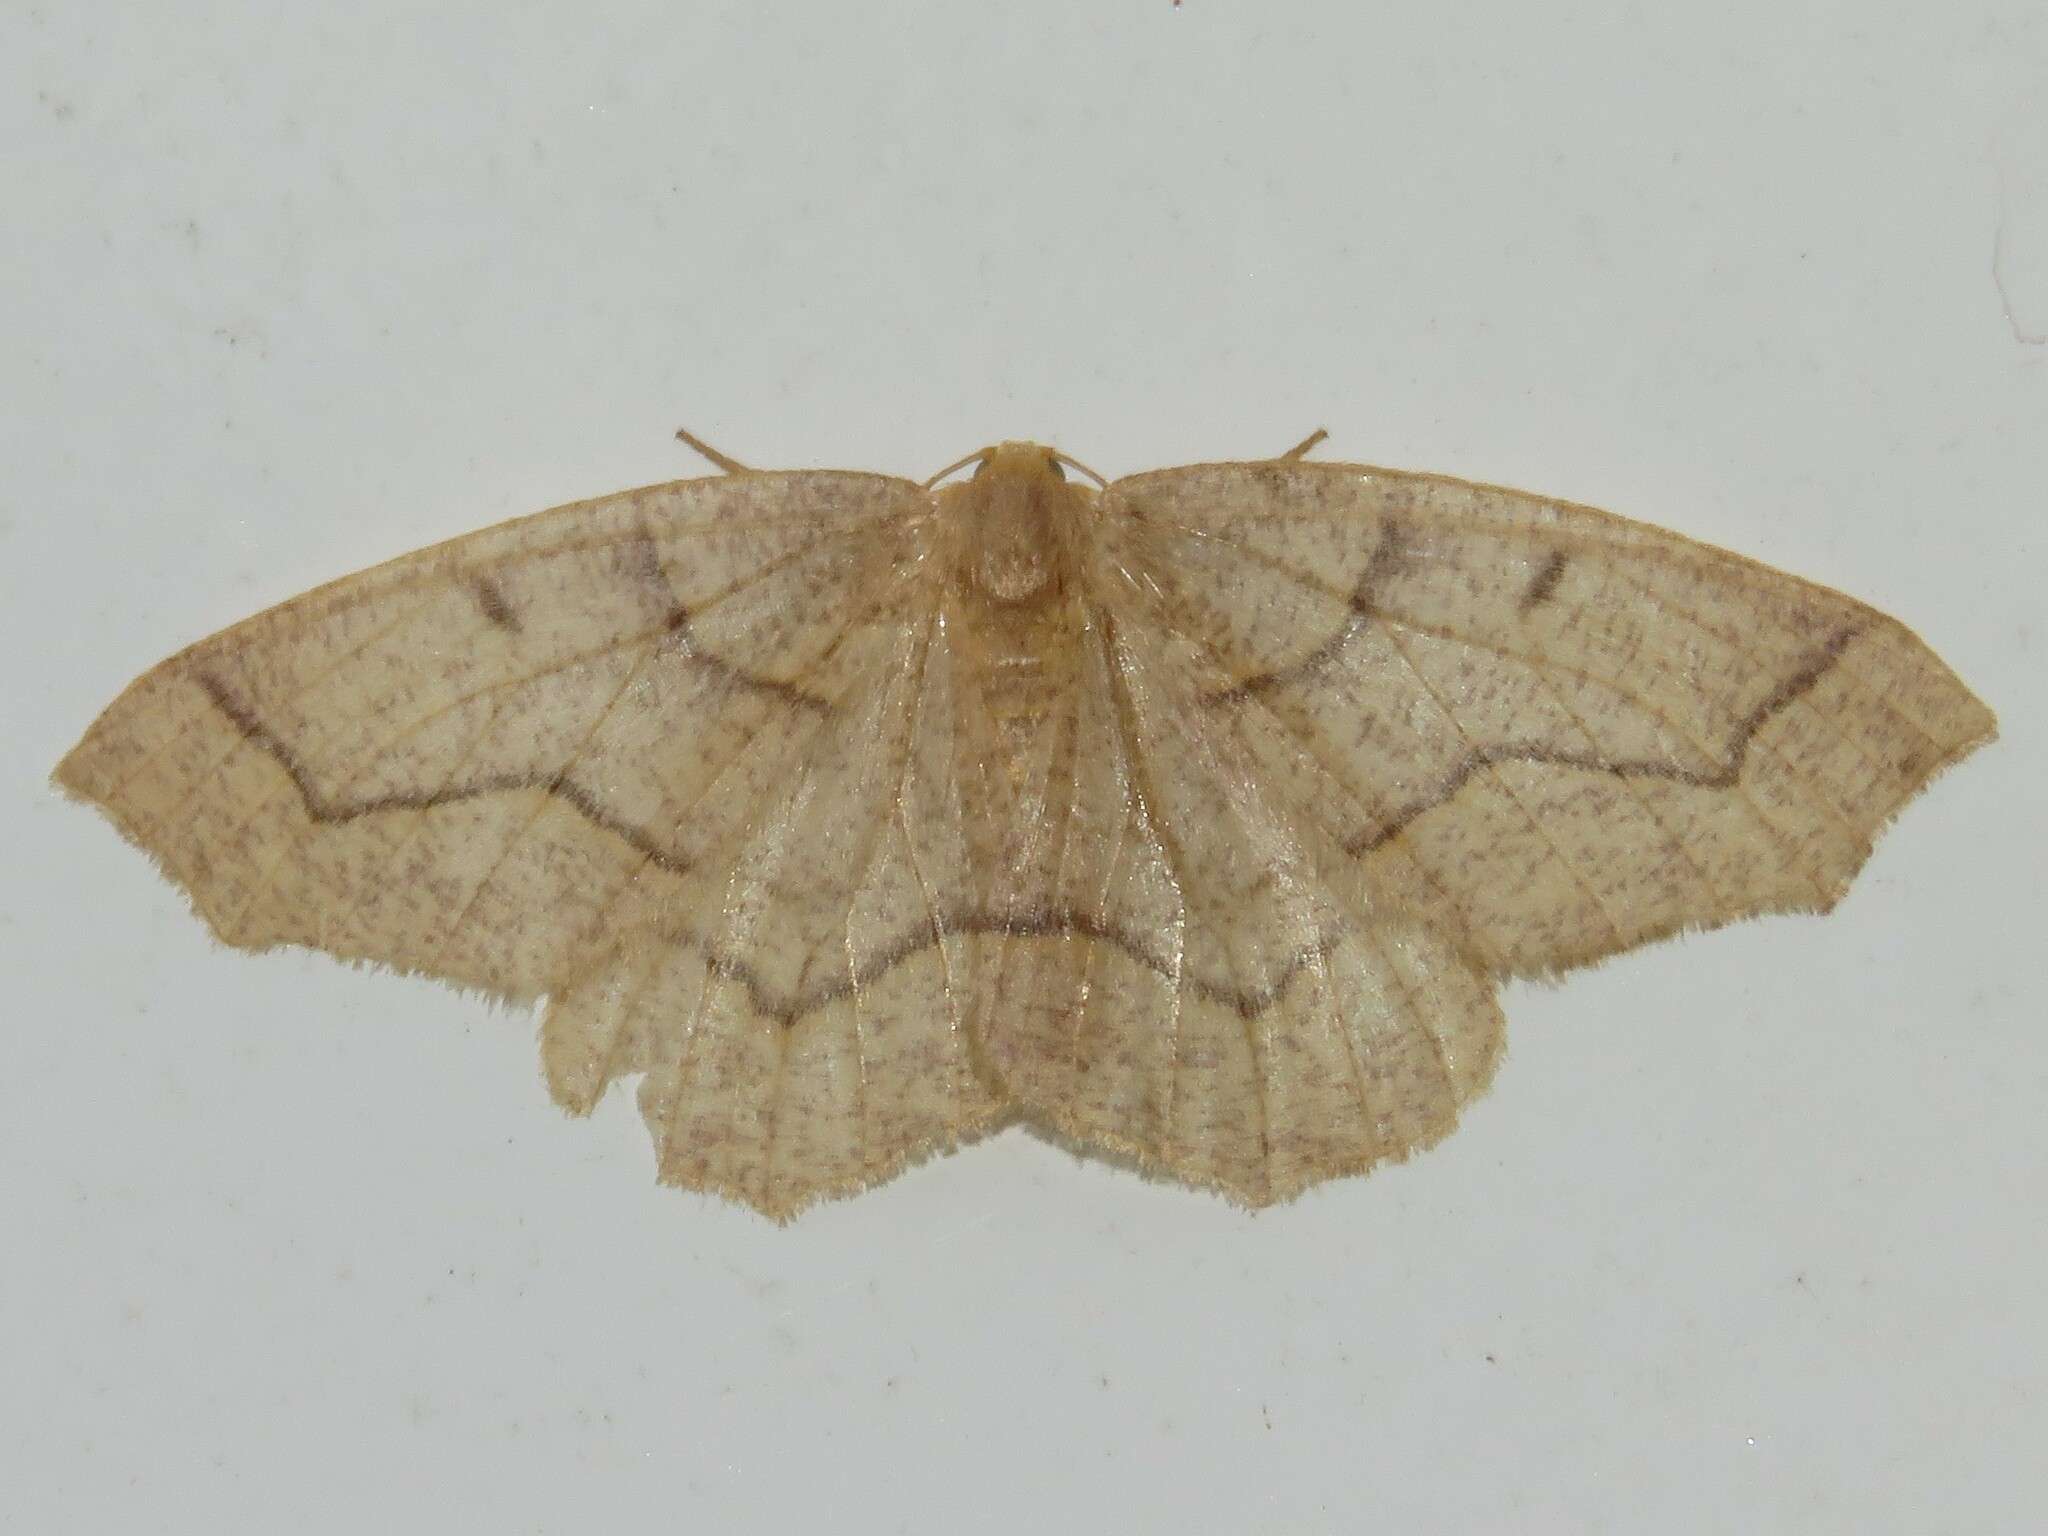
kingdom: Animalia
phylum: Arthropoda
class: Insecta
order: Lepidoptera
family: Geometridae
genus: Lambdina
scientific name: Lambdina fiscellaria
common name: Hemlock looper
